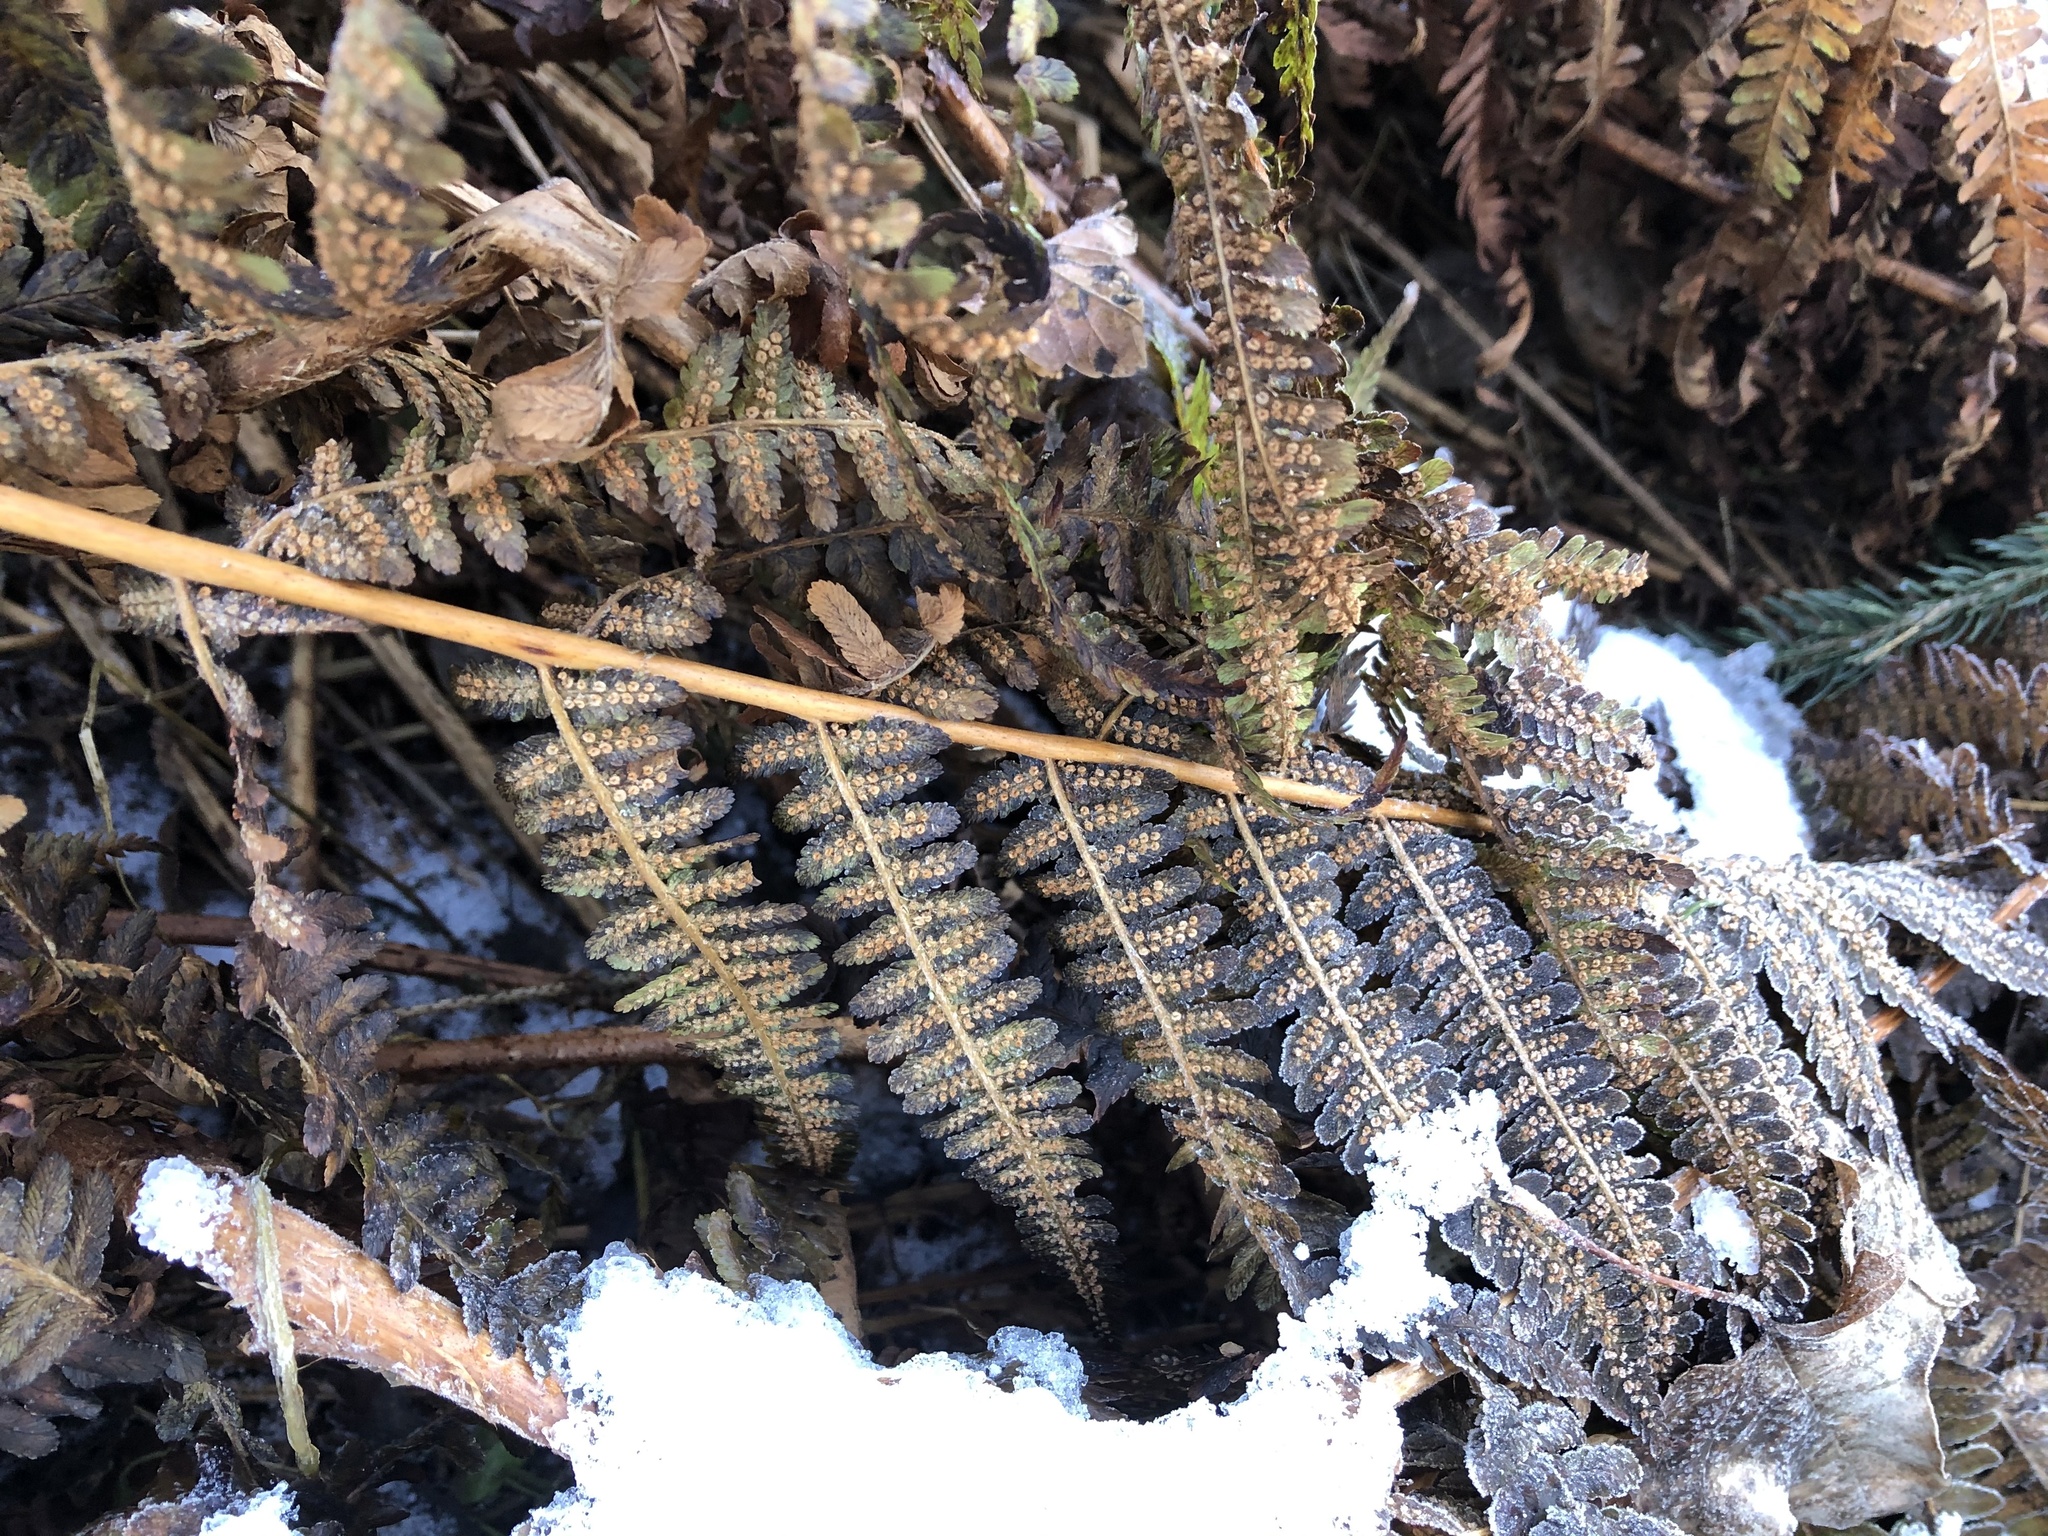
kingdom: Plantae
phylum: Tracheophyta
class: Polypodiopsida
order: Polypodiales
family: Dryopteridaceae
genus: Dryopteris
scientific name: Dryopteris filix-mas
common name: Male fern
